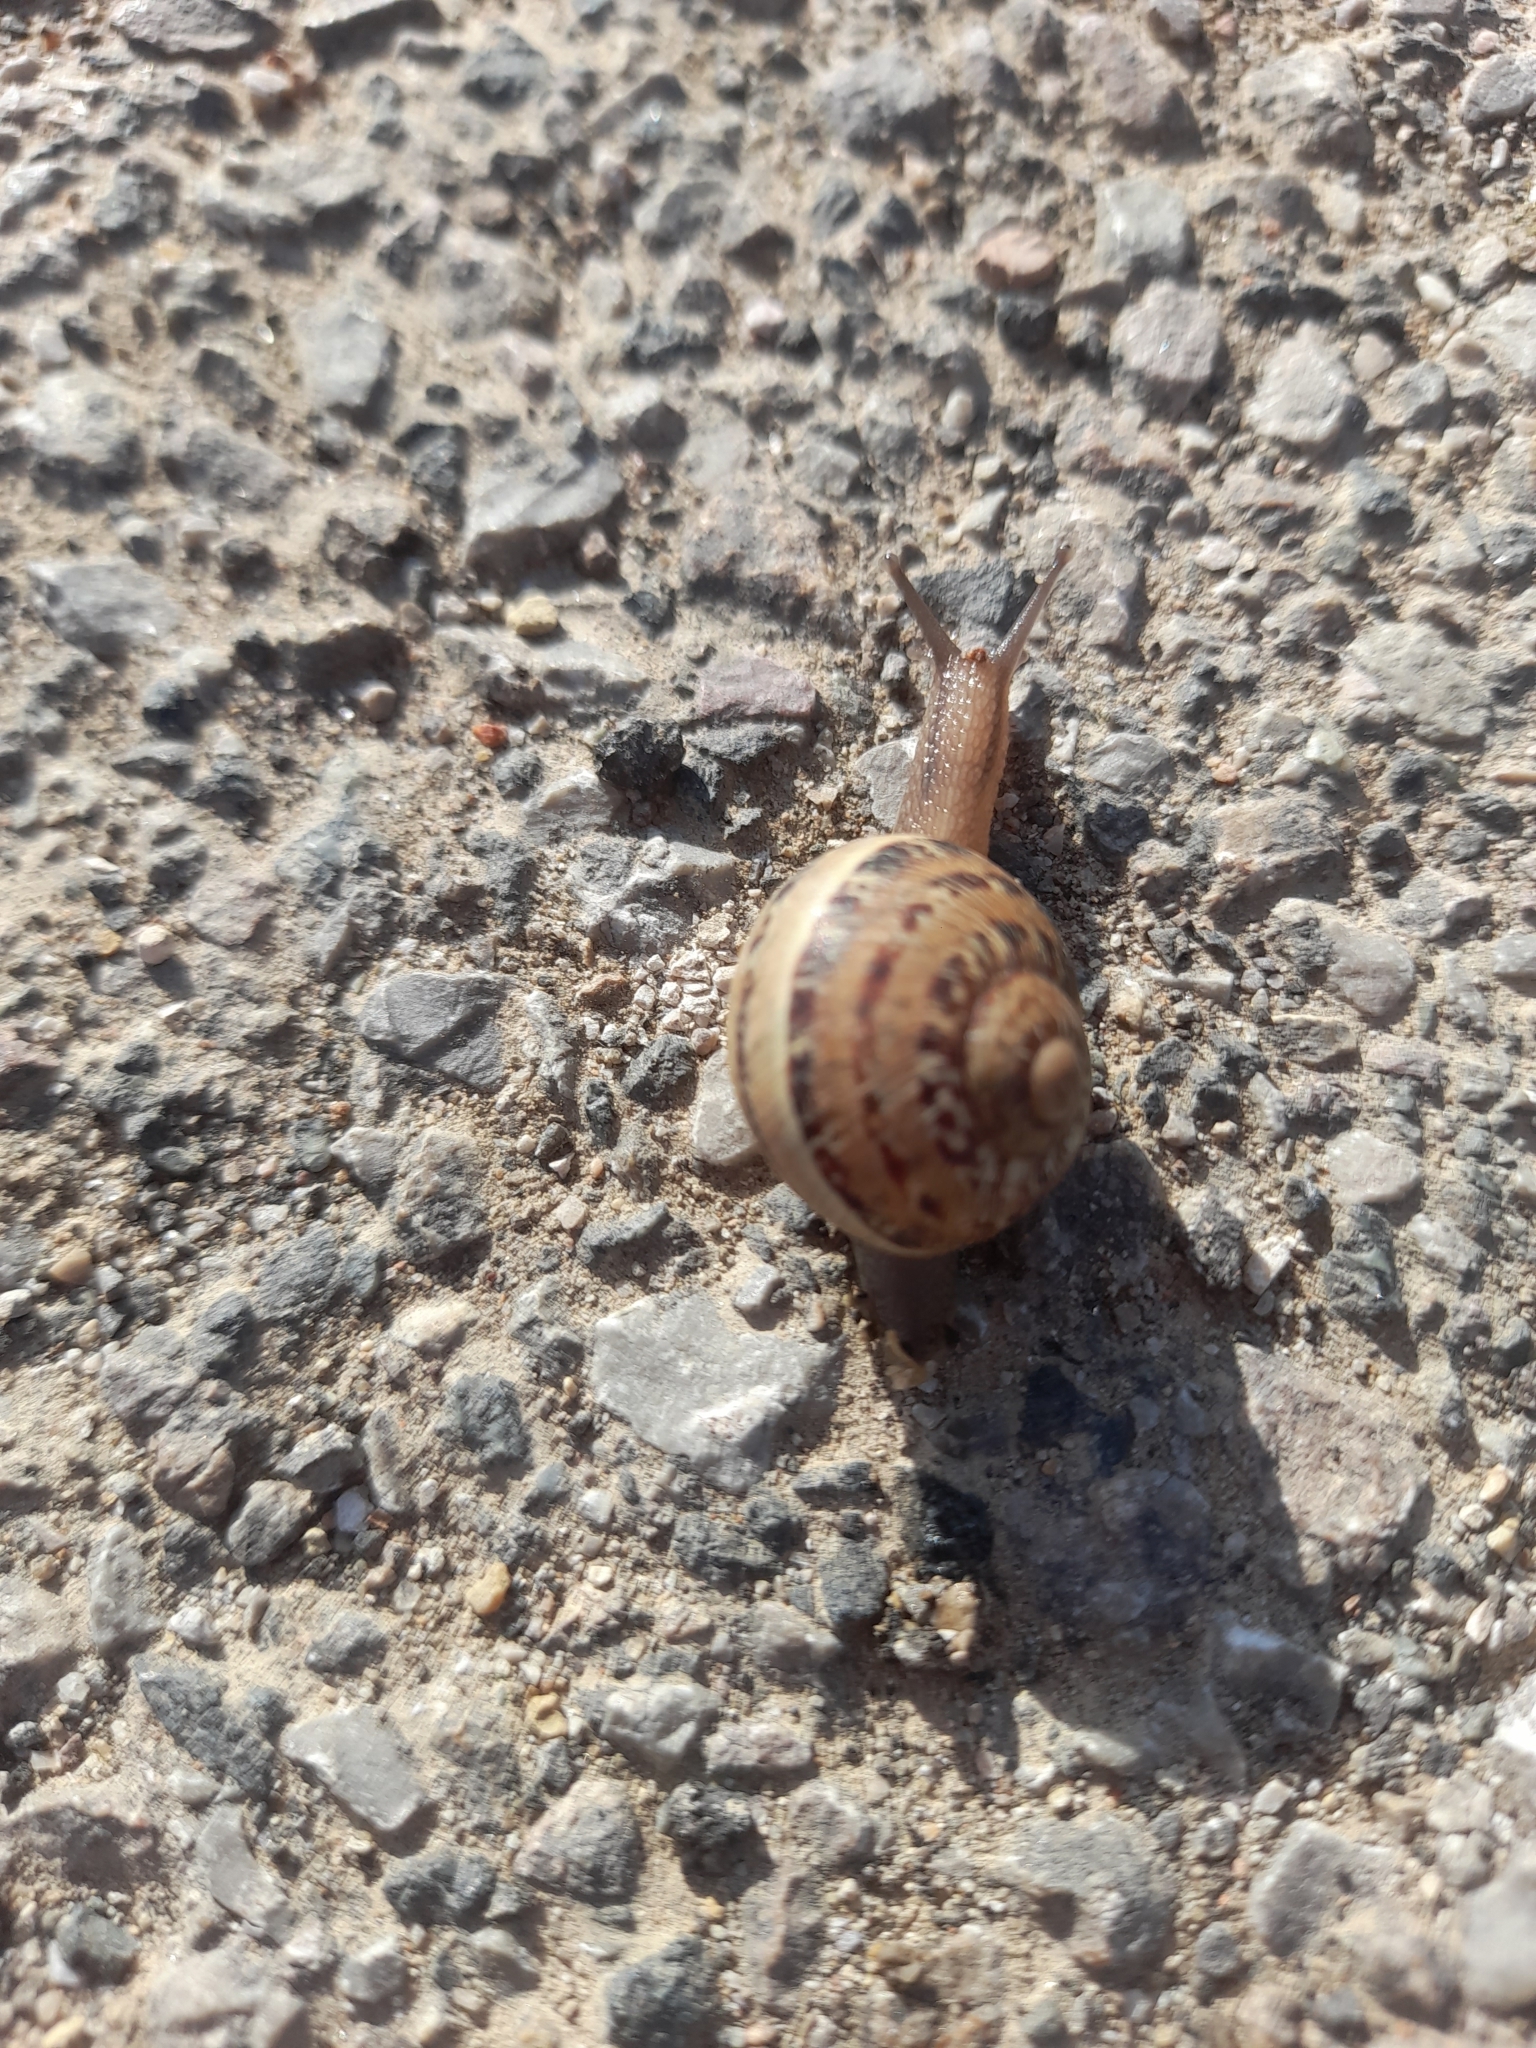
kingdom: Animalia
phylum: Mollusca
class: Gastropoda
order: Stylommatophora
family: Helicidae
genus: Cornu
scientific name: Cornu aspersum
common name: Brown garden snail
